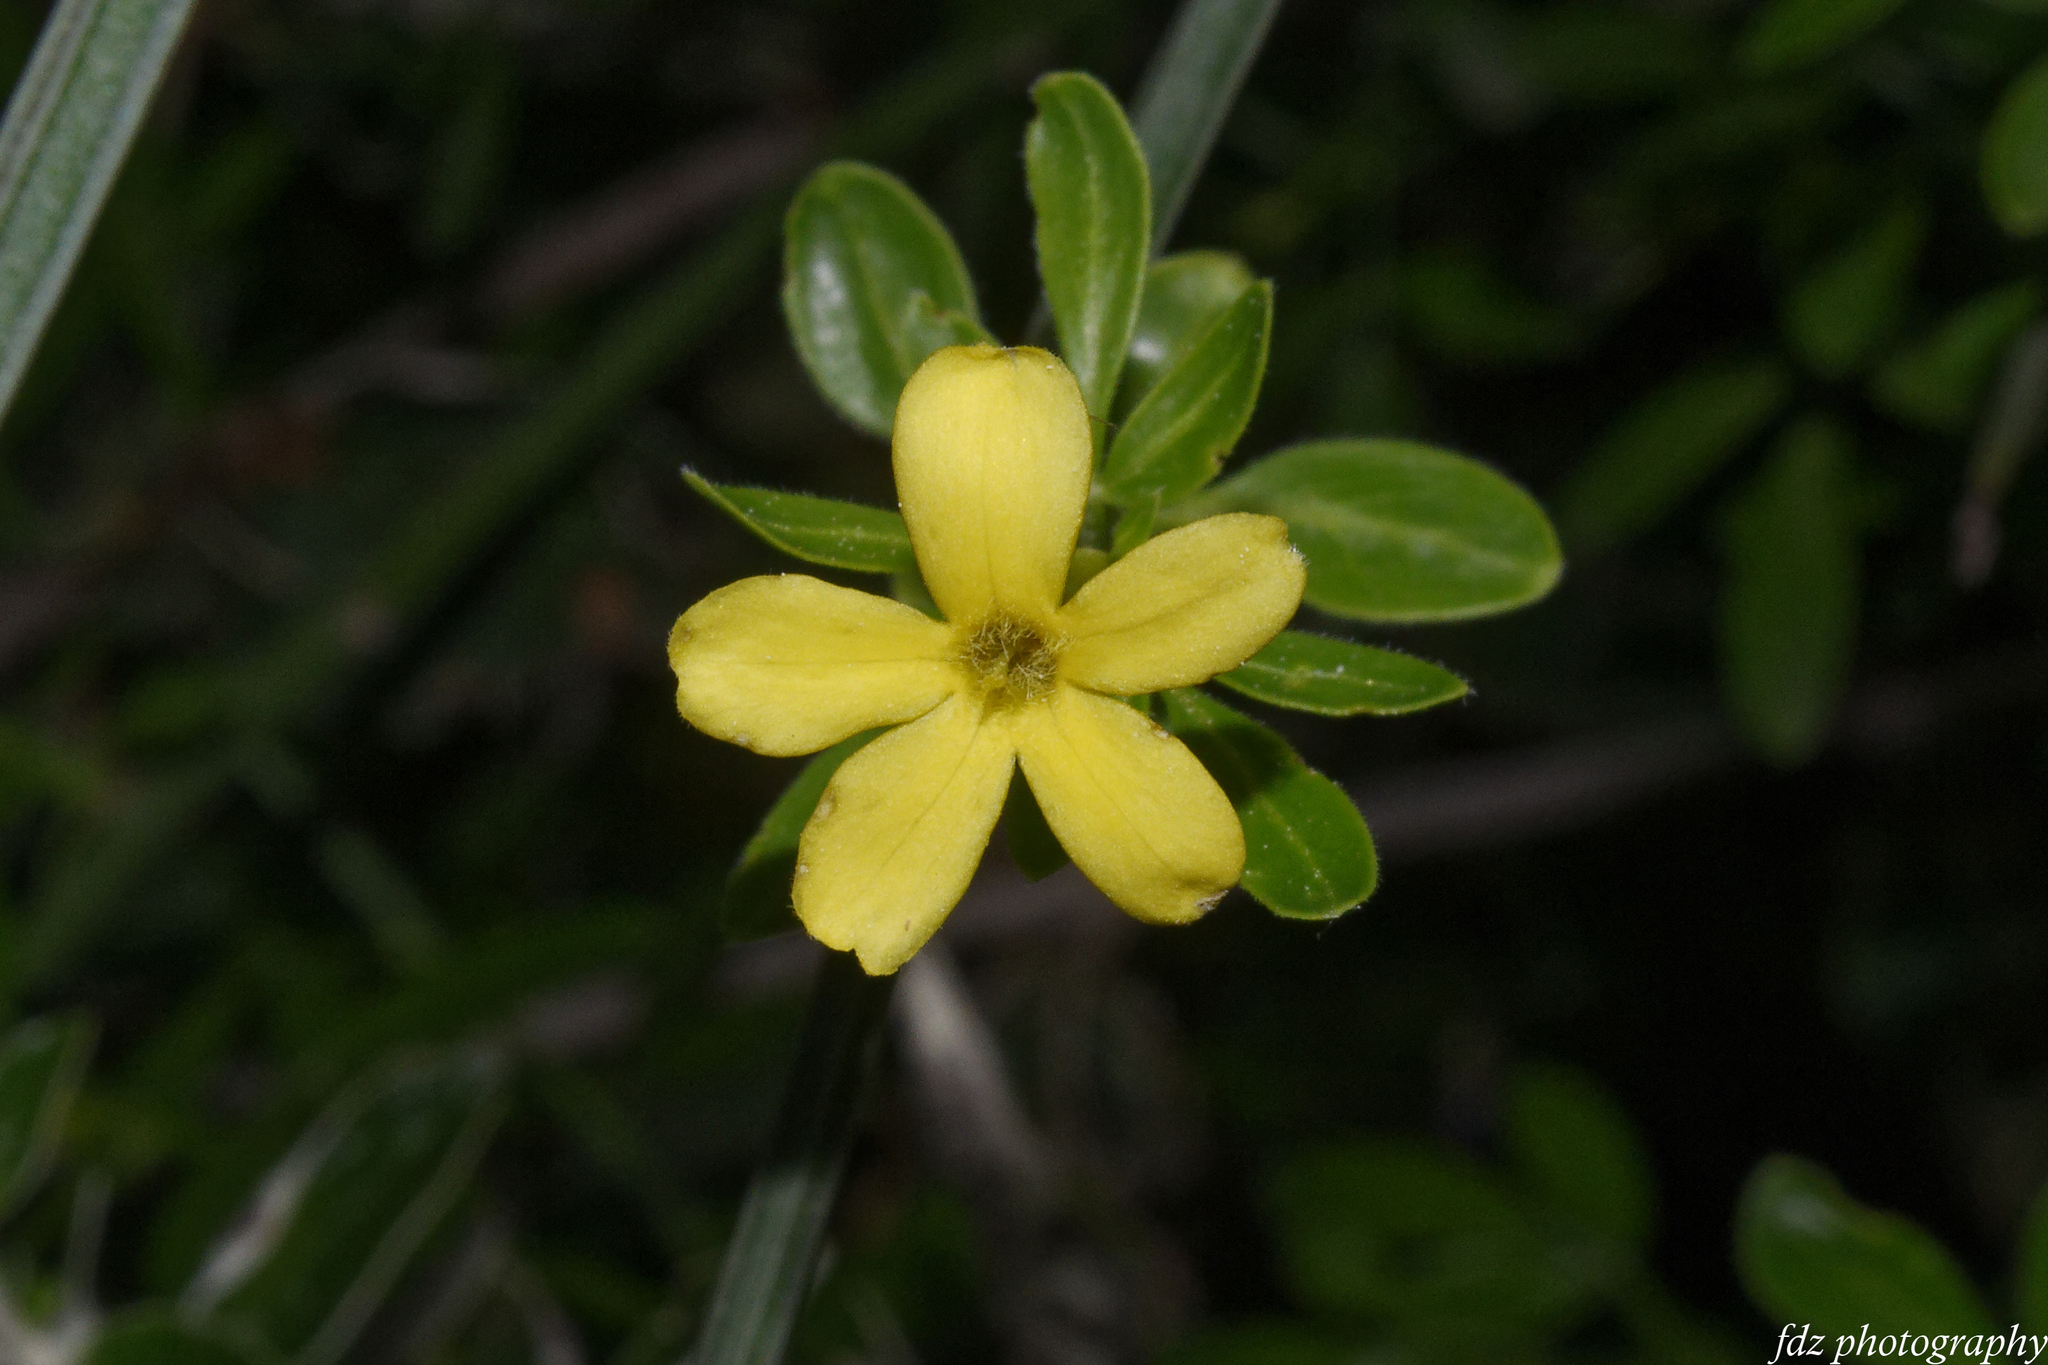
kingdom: Plantae
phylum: Tracheophyta
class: Magnoliopsida
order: Lamiales
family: Oleaceae
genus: Chrysojasminum
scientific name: Chrysojasminum fruticans
